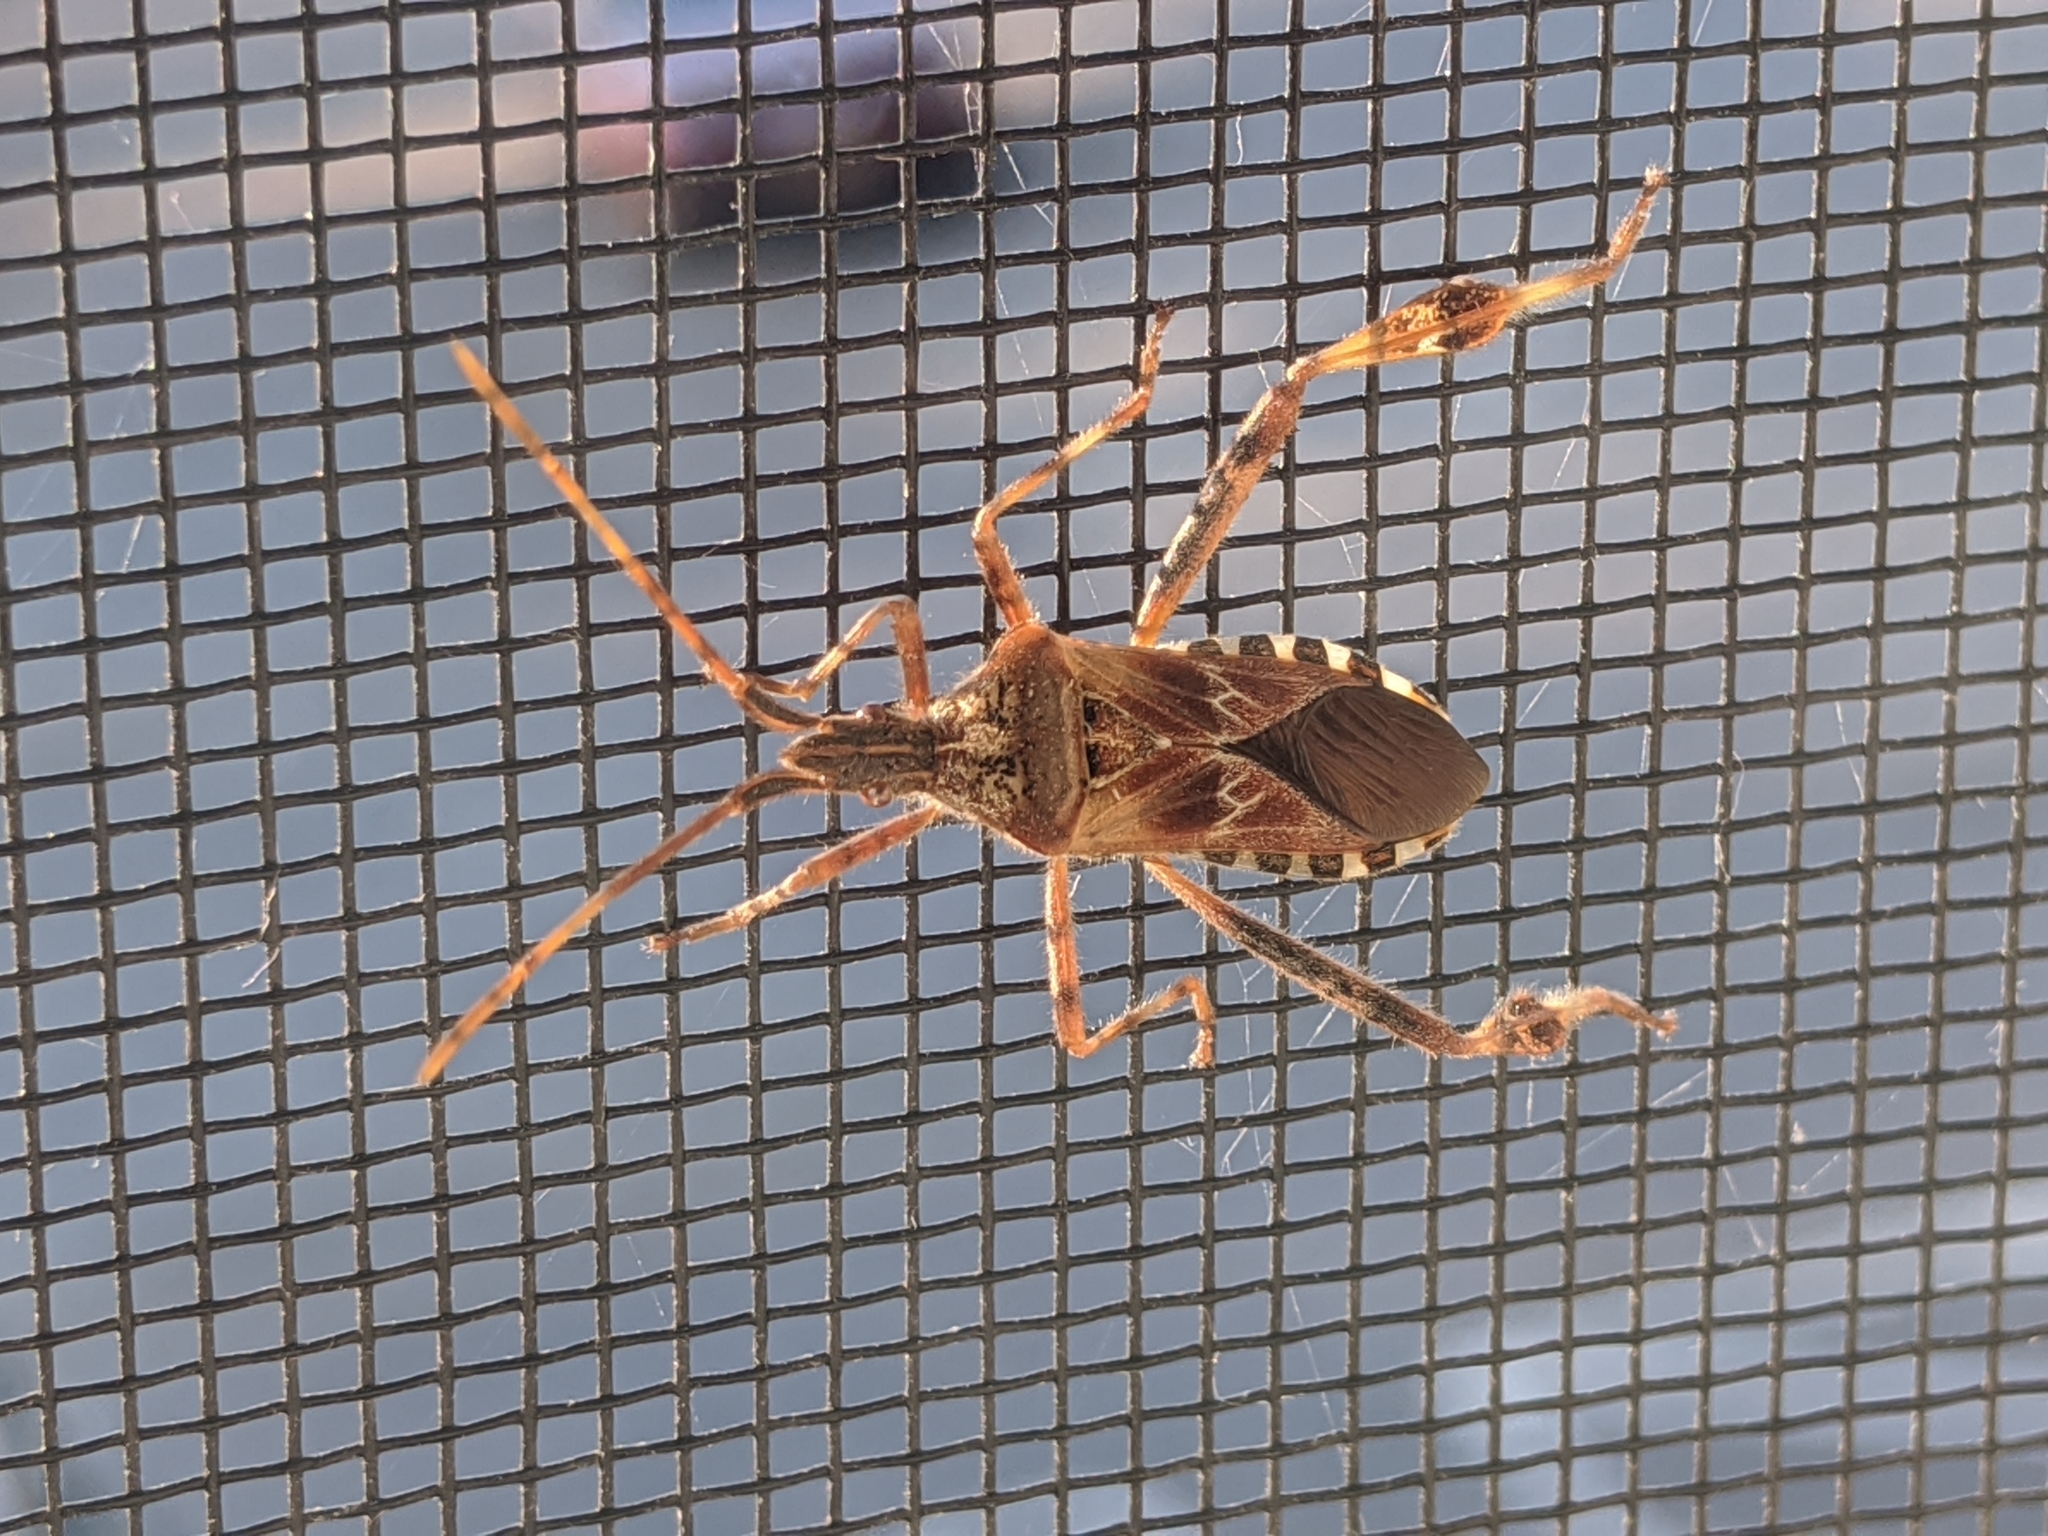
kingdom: Animalia
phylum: Arthropoda
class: Insecta
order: Hemiptera
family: Coreidae
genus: Leptoglossus
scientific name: Leptoglossus occidentalis
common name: Western conifer-seed bug
